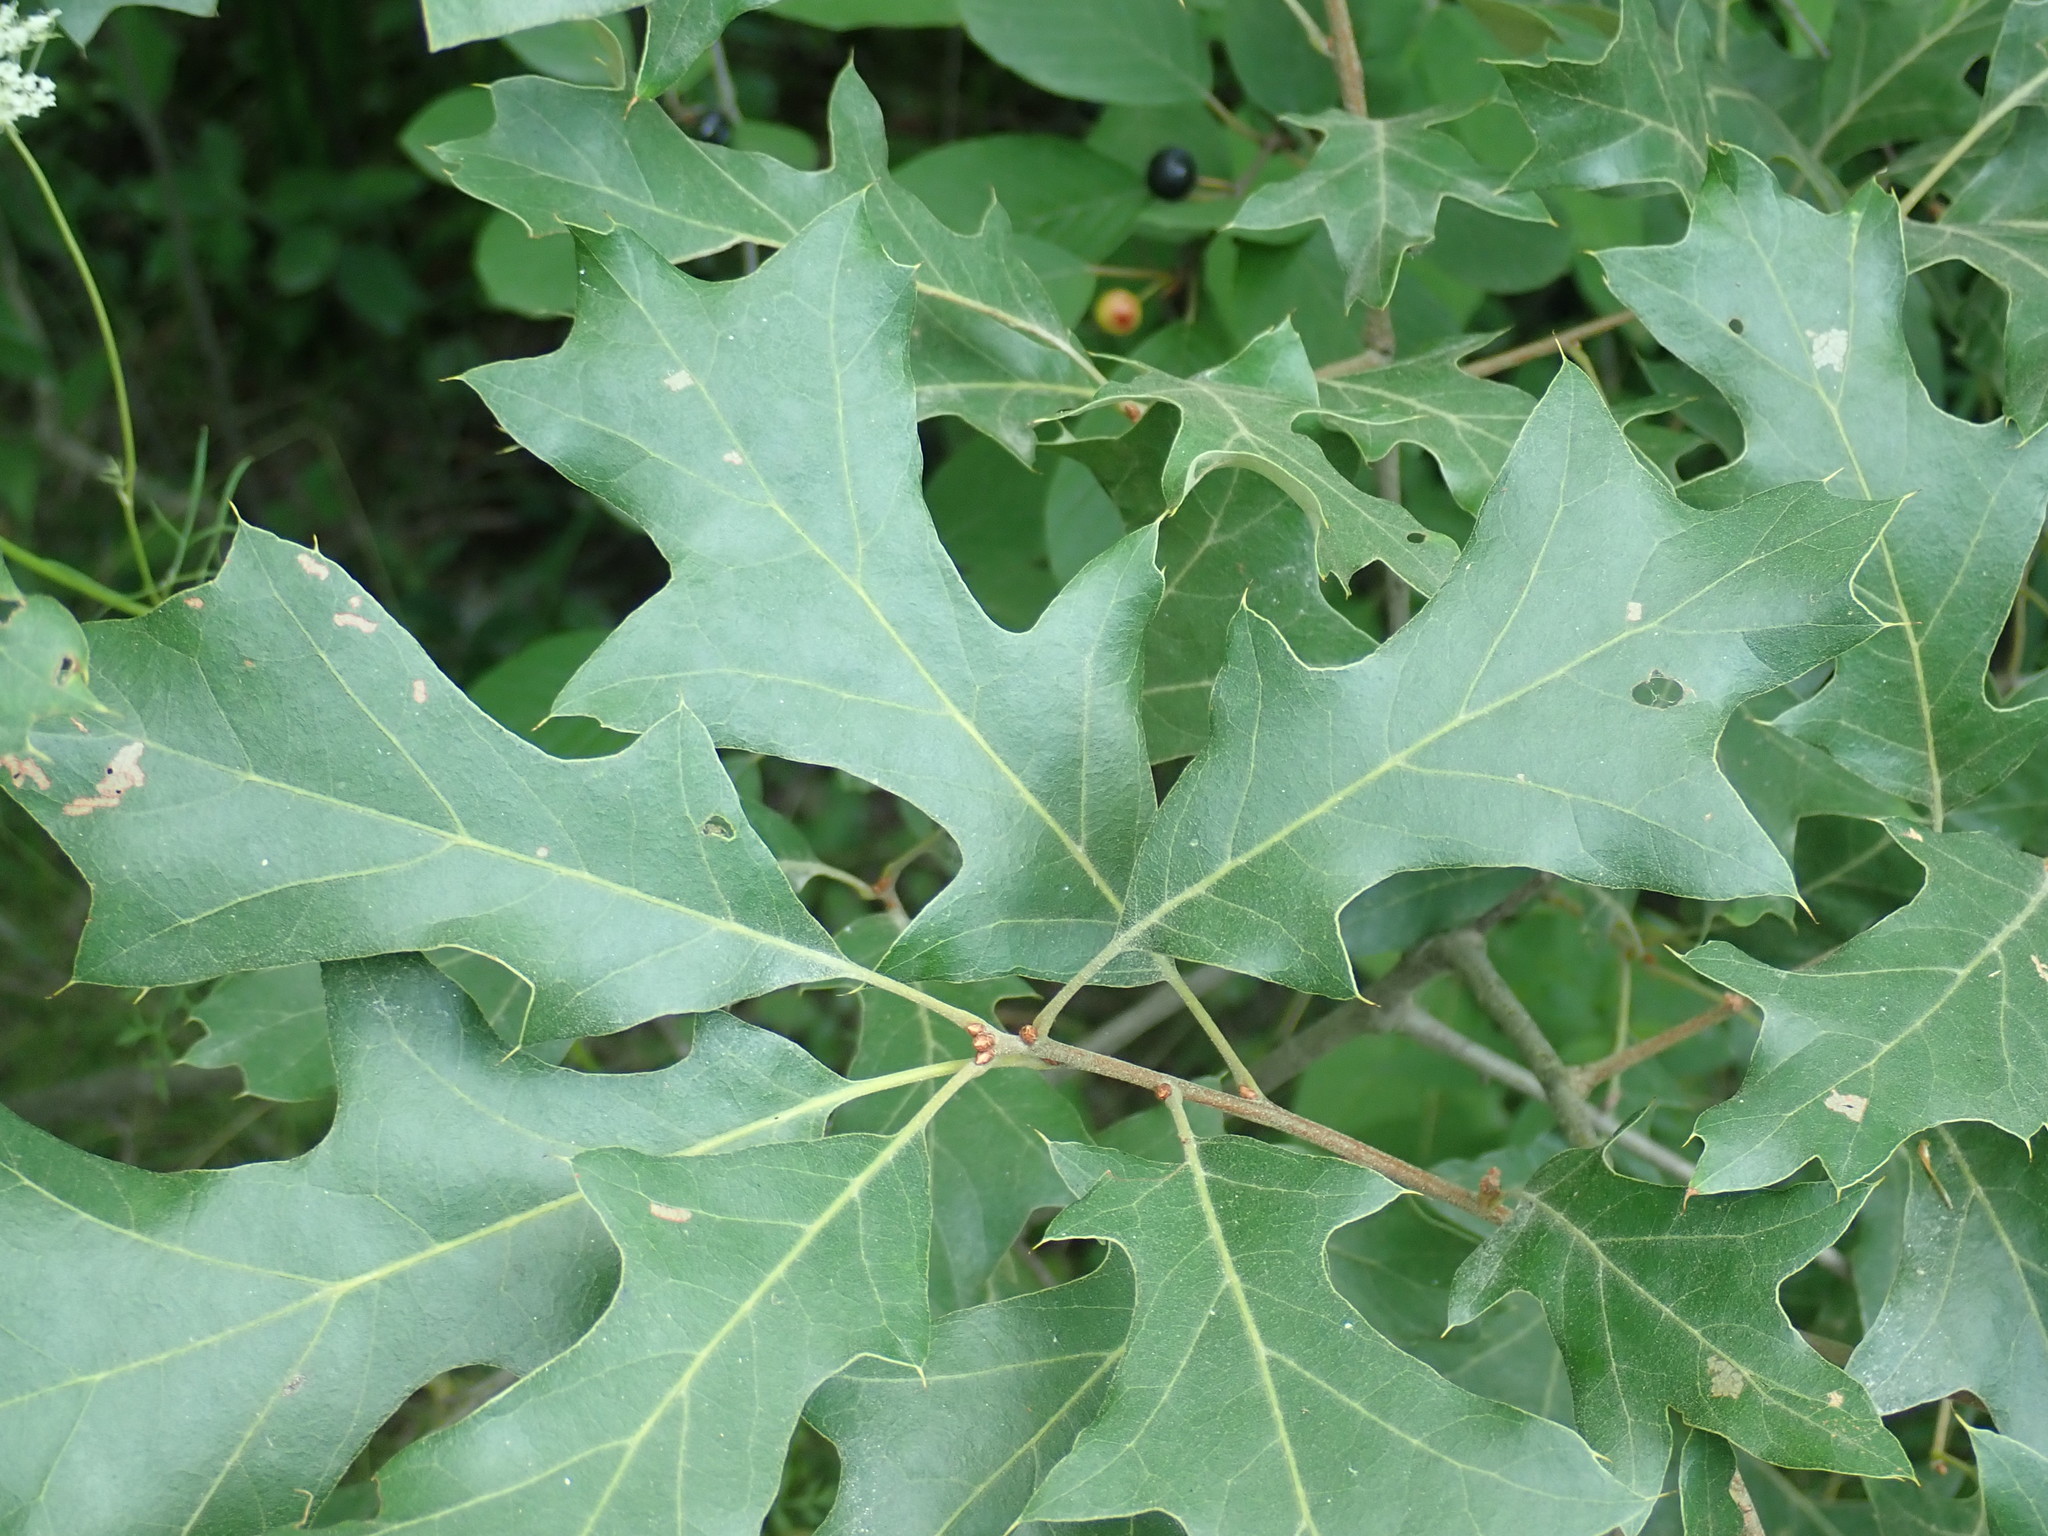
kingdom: Plantae
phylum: Tracheophyta
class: Magnoliopsida
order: Fagales
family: Fagaceae
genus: Quercus
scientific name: Quercus ilicifolia
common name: Bear oak
